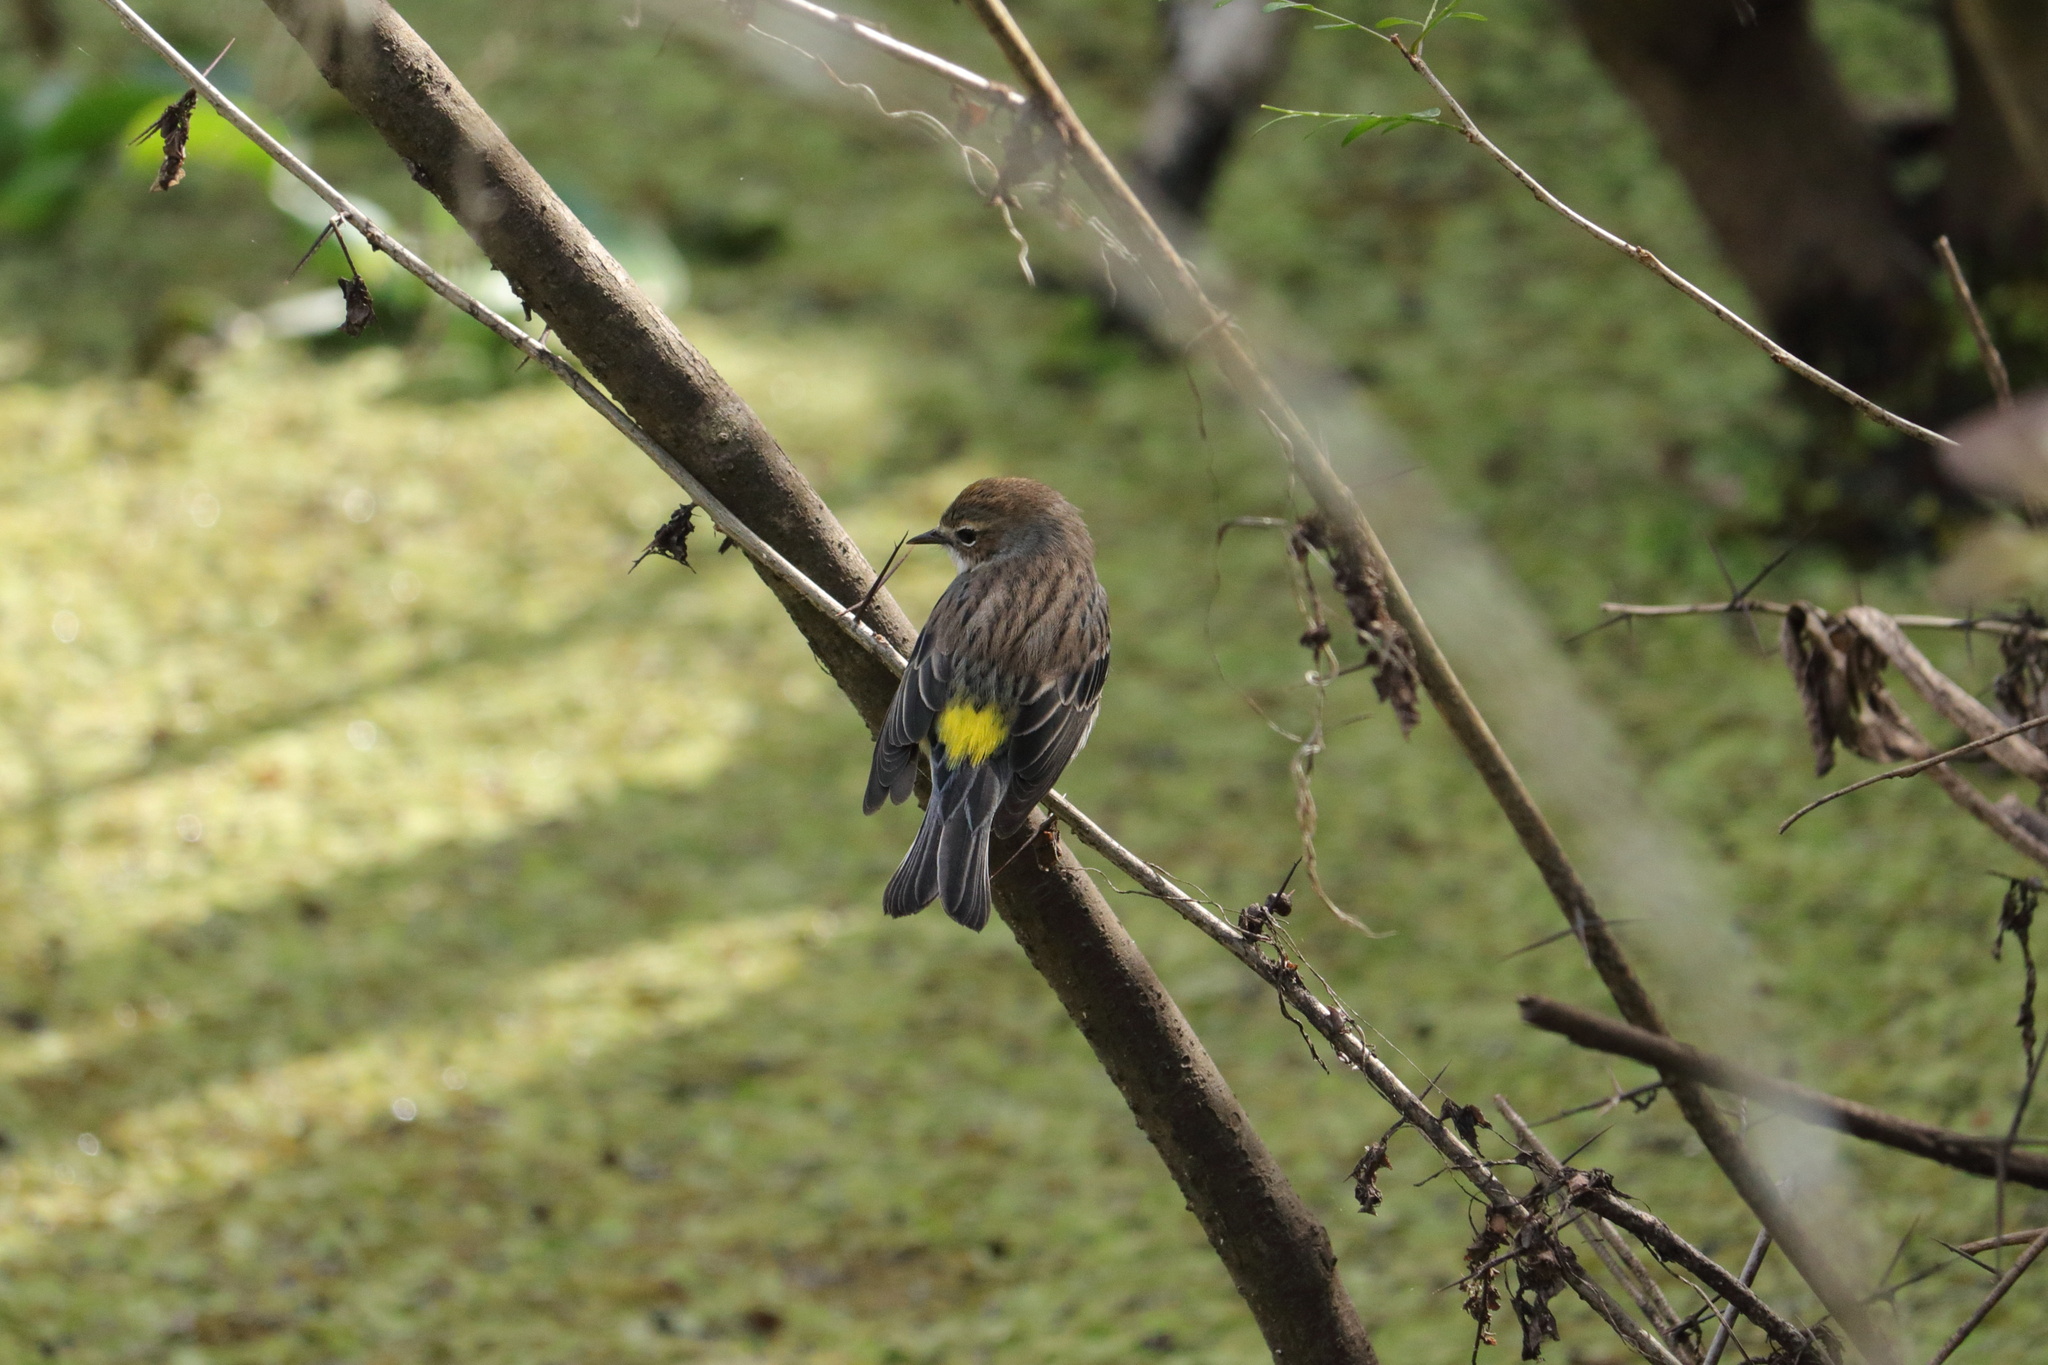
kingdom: Animalia
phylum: Chordata
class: Aves
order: Passeriformes
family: Parulidae
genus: Setophaga
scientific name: Setophaga coronata
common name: Myrtle warbler
